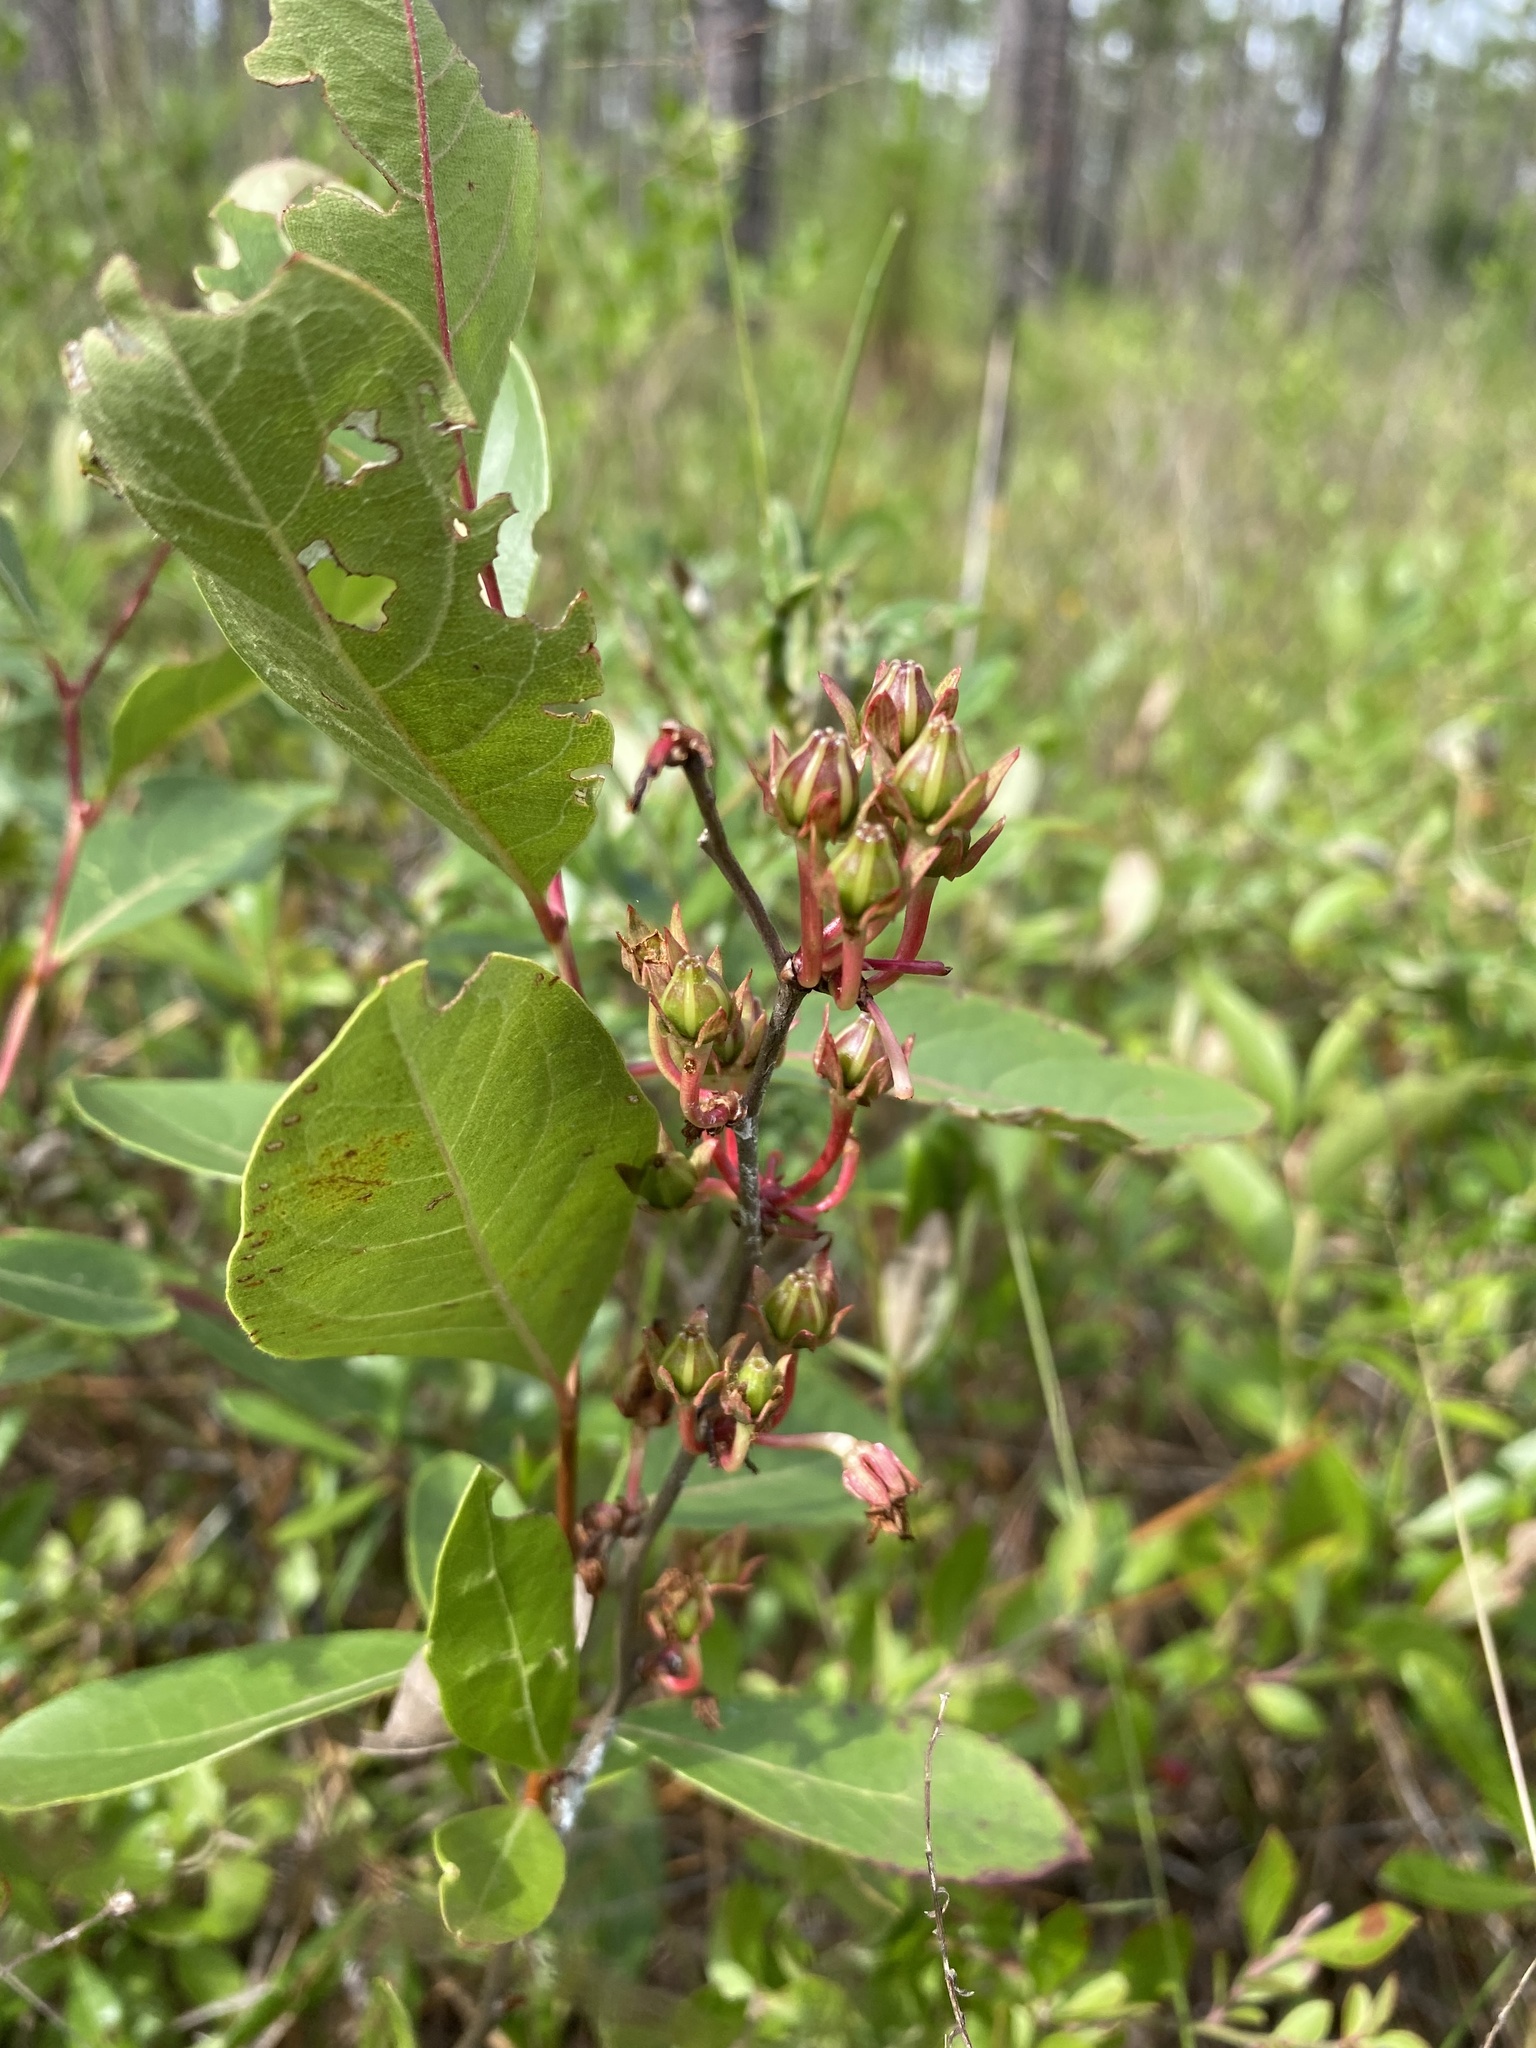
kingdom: Plantae
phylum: Tracheophyta
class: Magnoliopsida
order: Ericales
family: Ericaceae
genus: Lyonia
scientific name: Lyonia mariana
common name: Staggerbush
